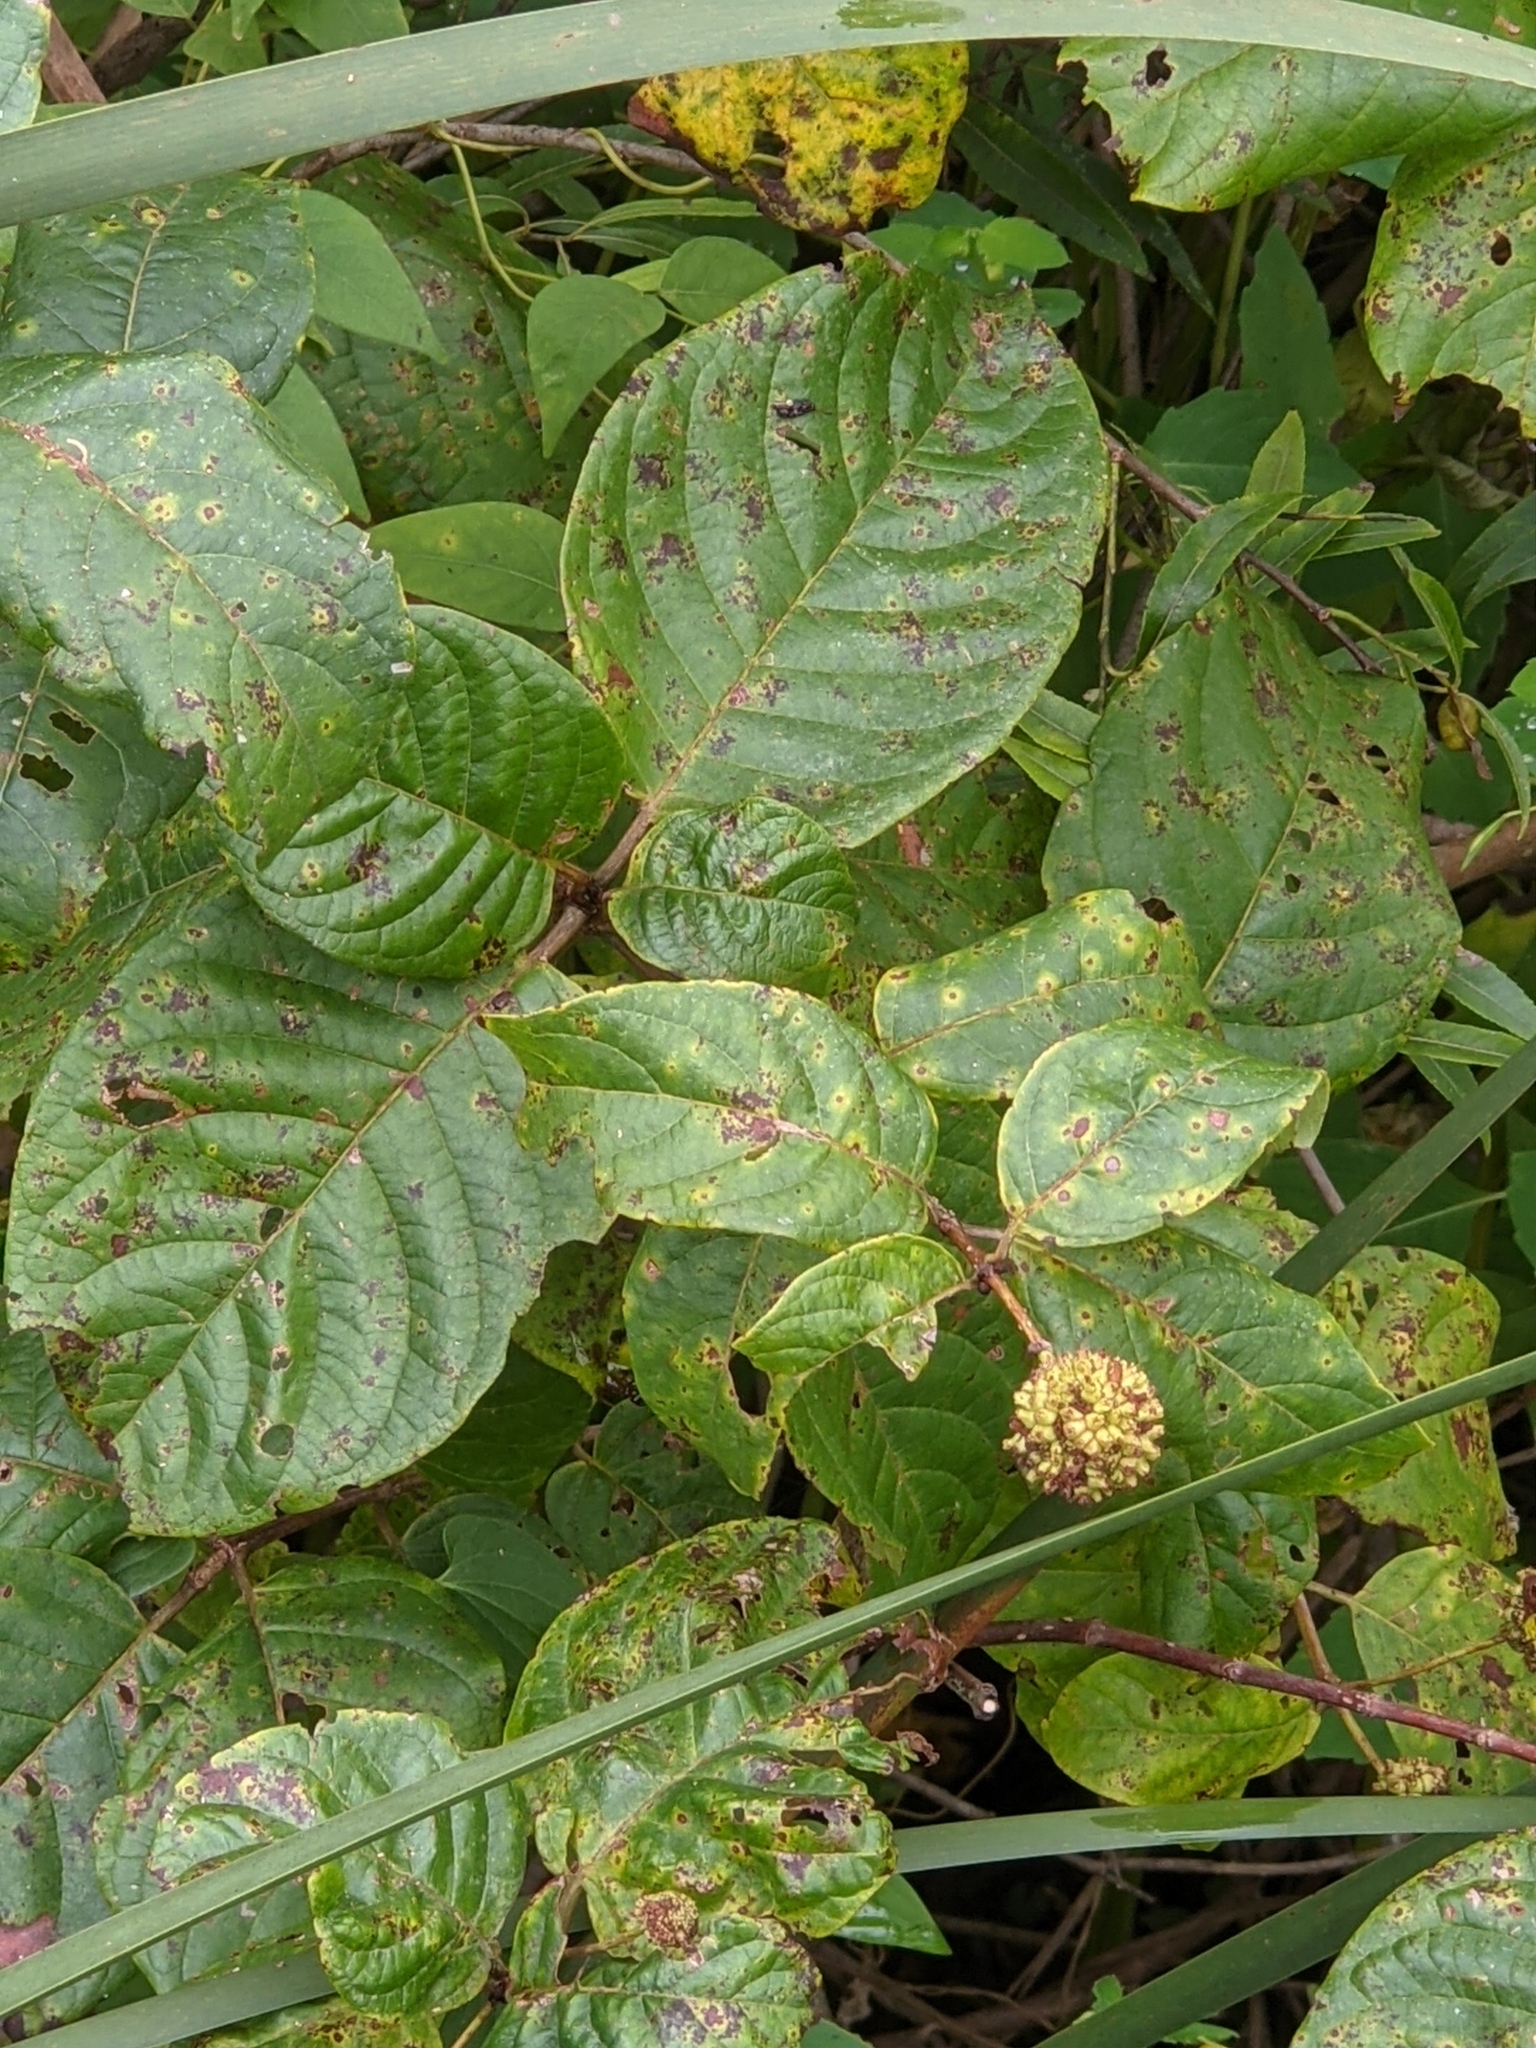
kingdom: Plantae
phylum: Tracheophyta
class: Magnoliopsida
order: Gentianales
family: Rubiaceae
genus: Cephalanthus
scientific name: Cephalanthus occidentalis
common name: Button-willow
